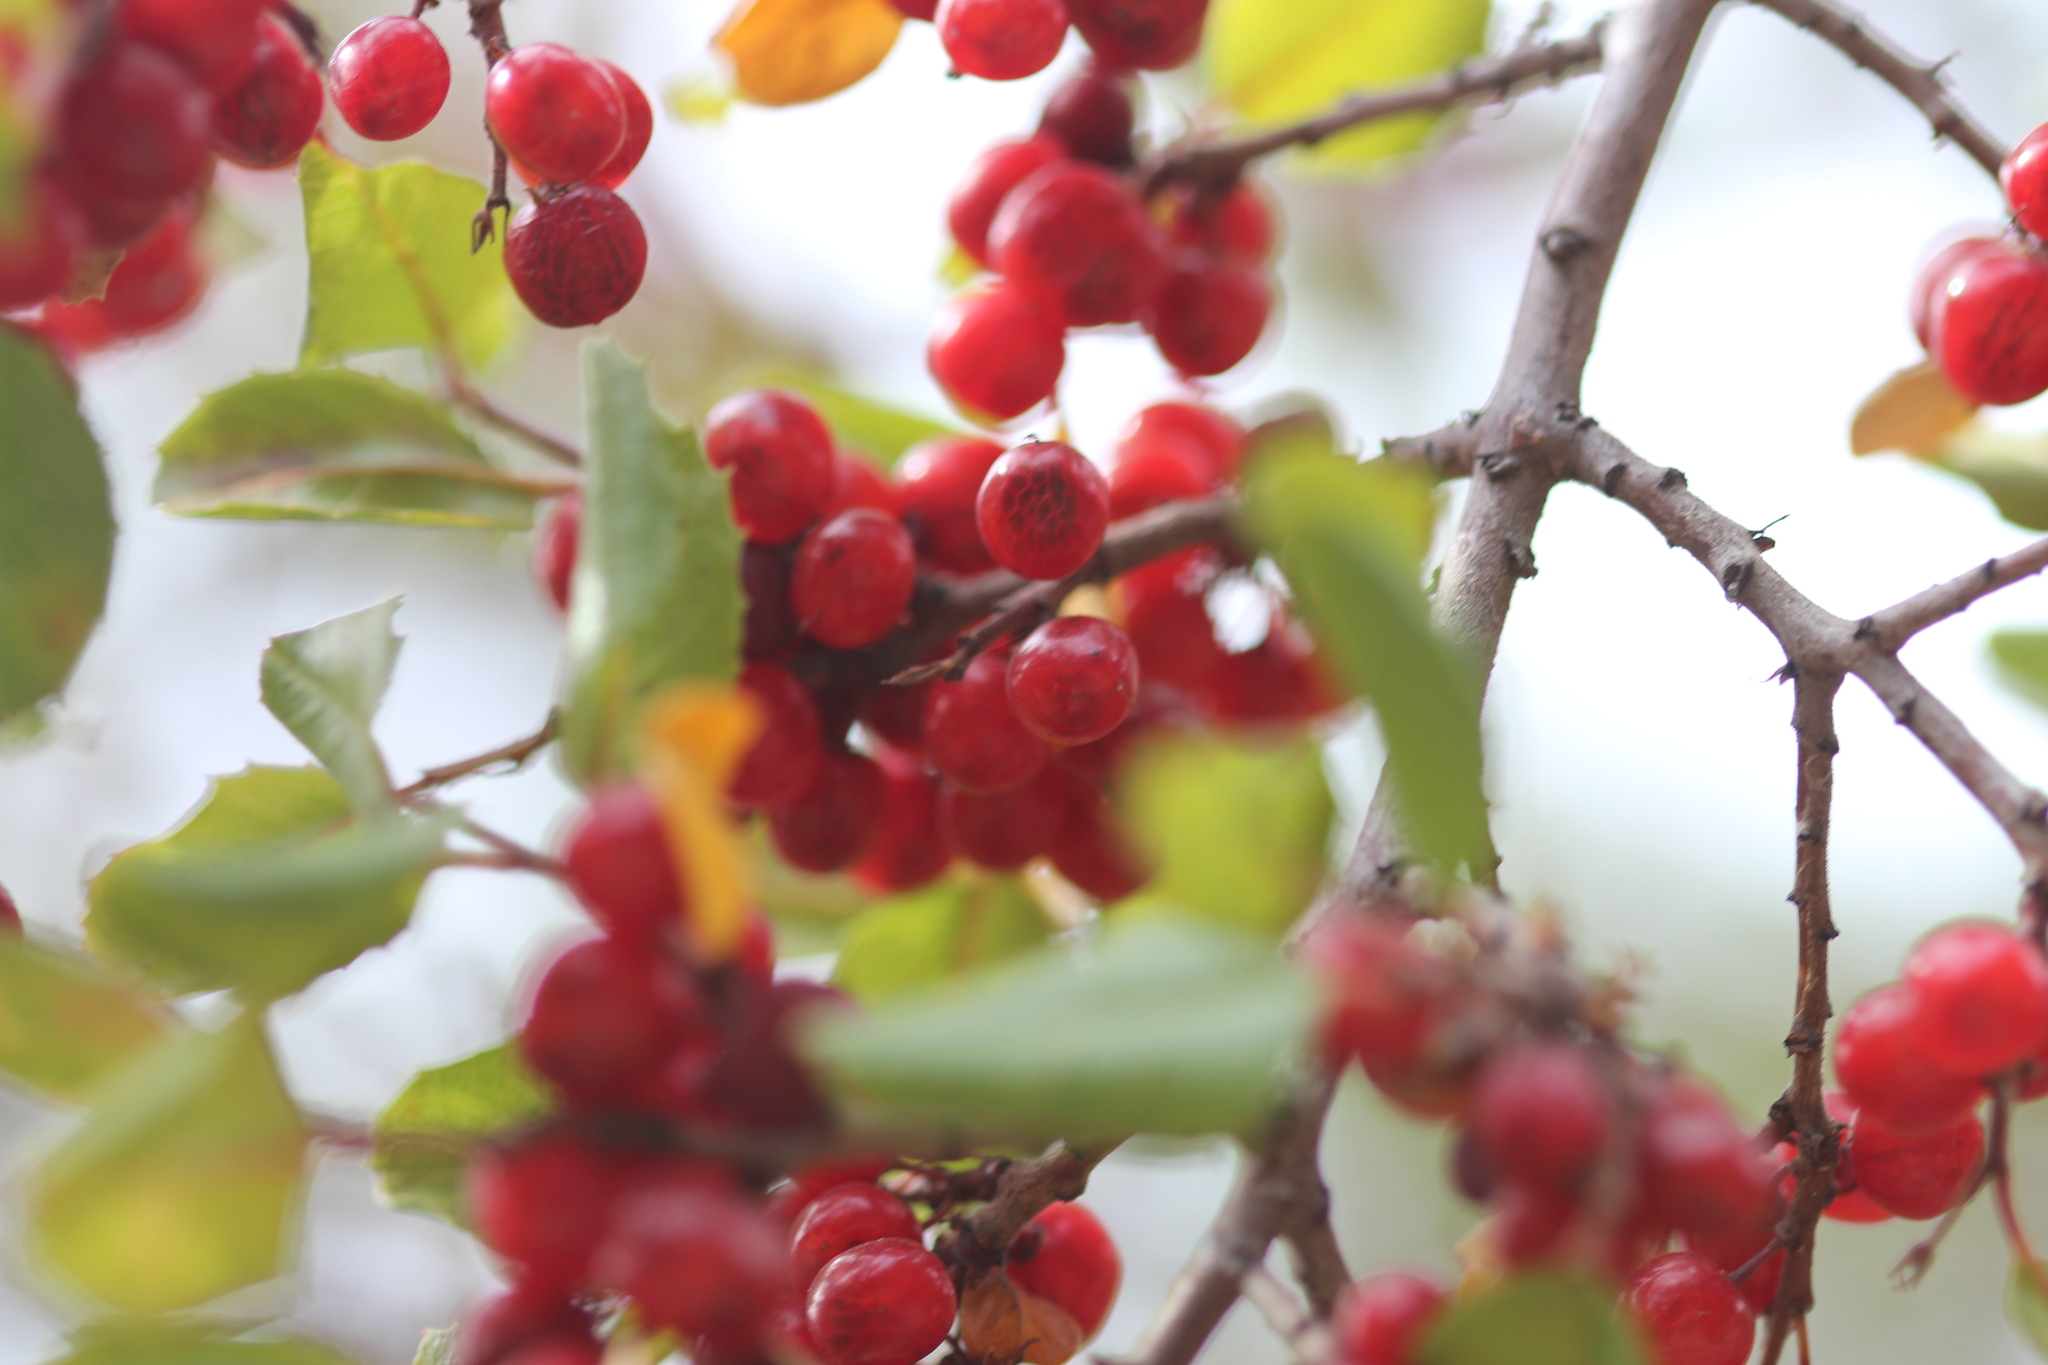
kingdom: Plantae
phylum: Tracheophyta
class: Magnoliopsida
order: Rosales
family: Rhamnaceae
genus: Endotropis
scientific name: Endotropis crocea
